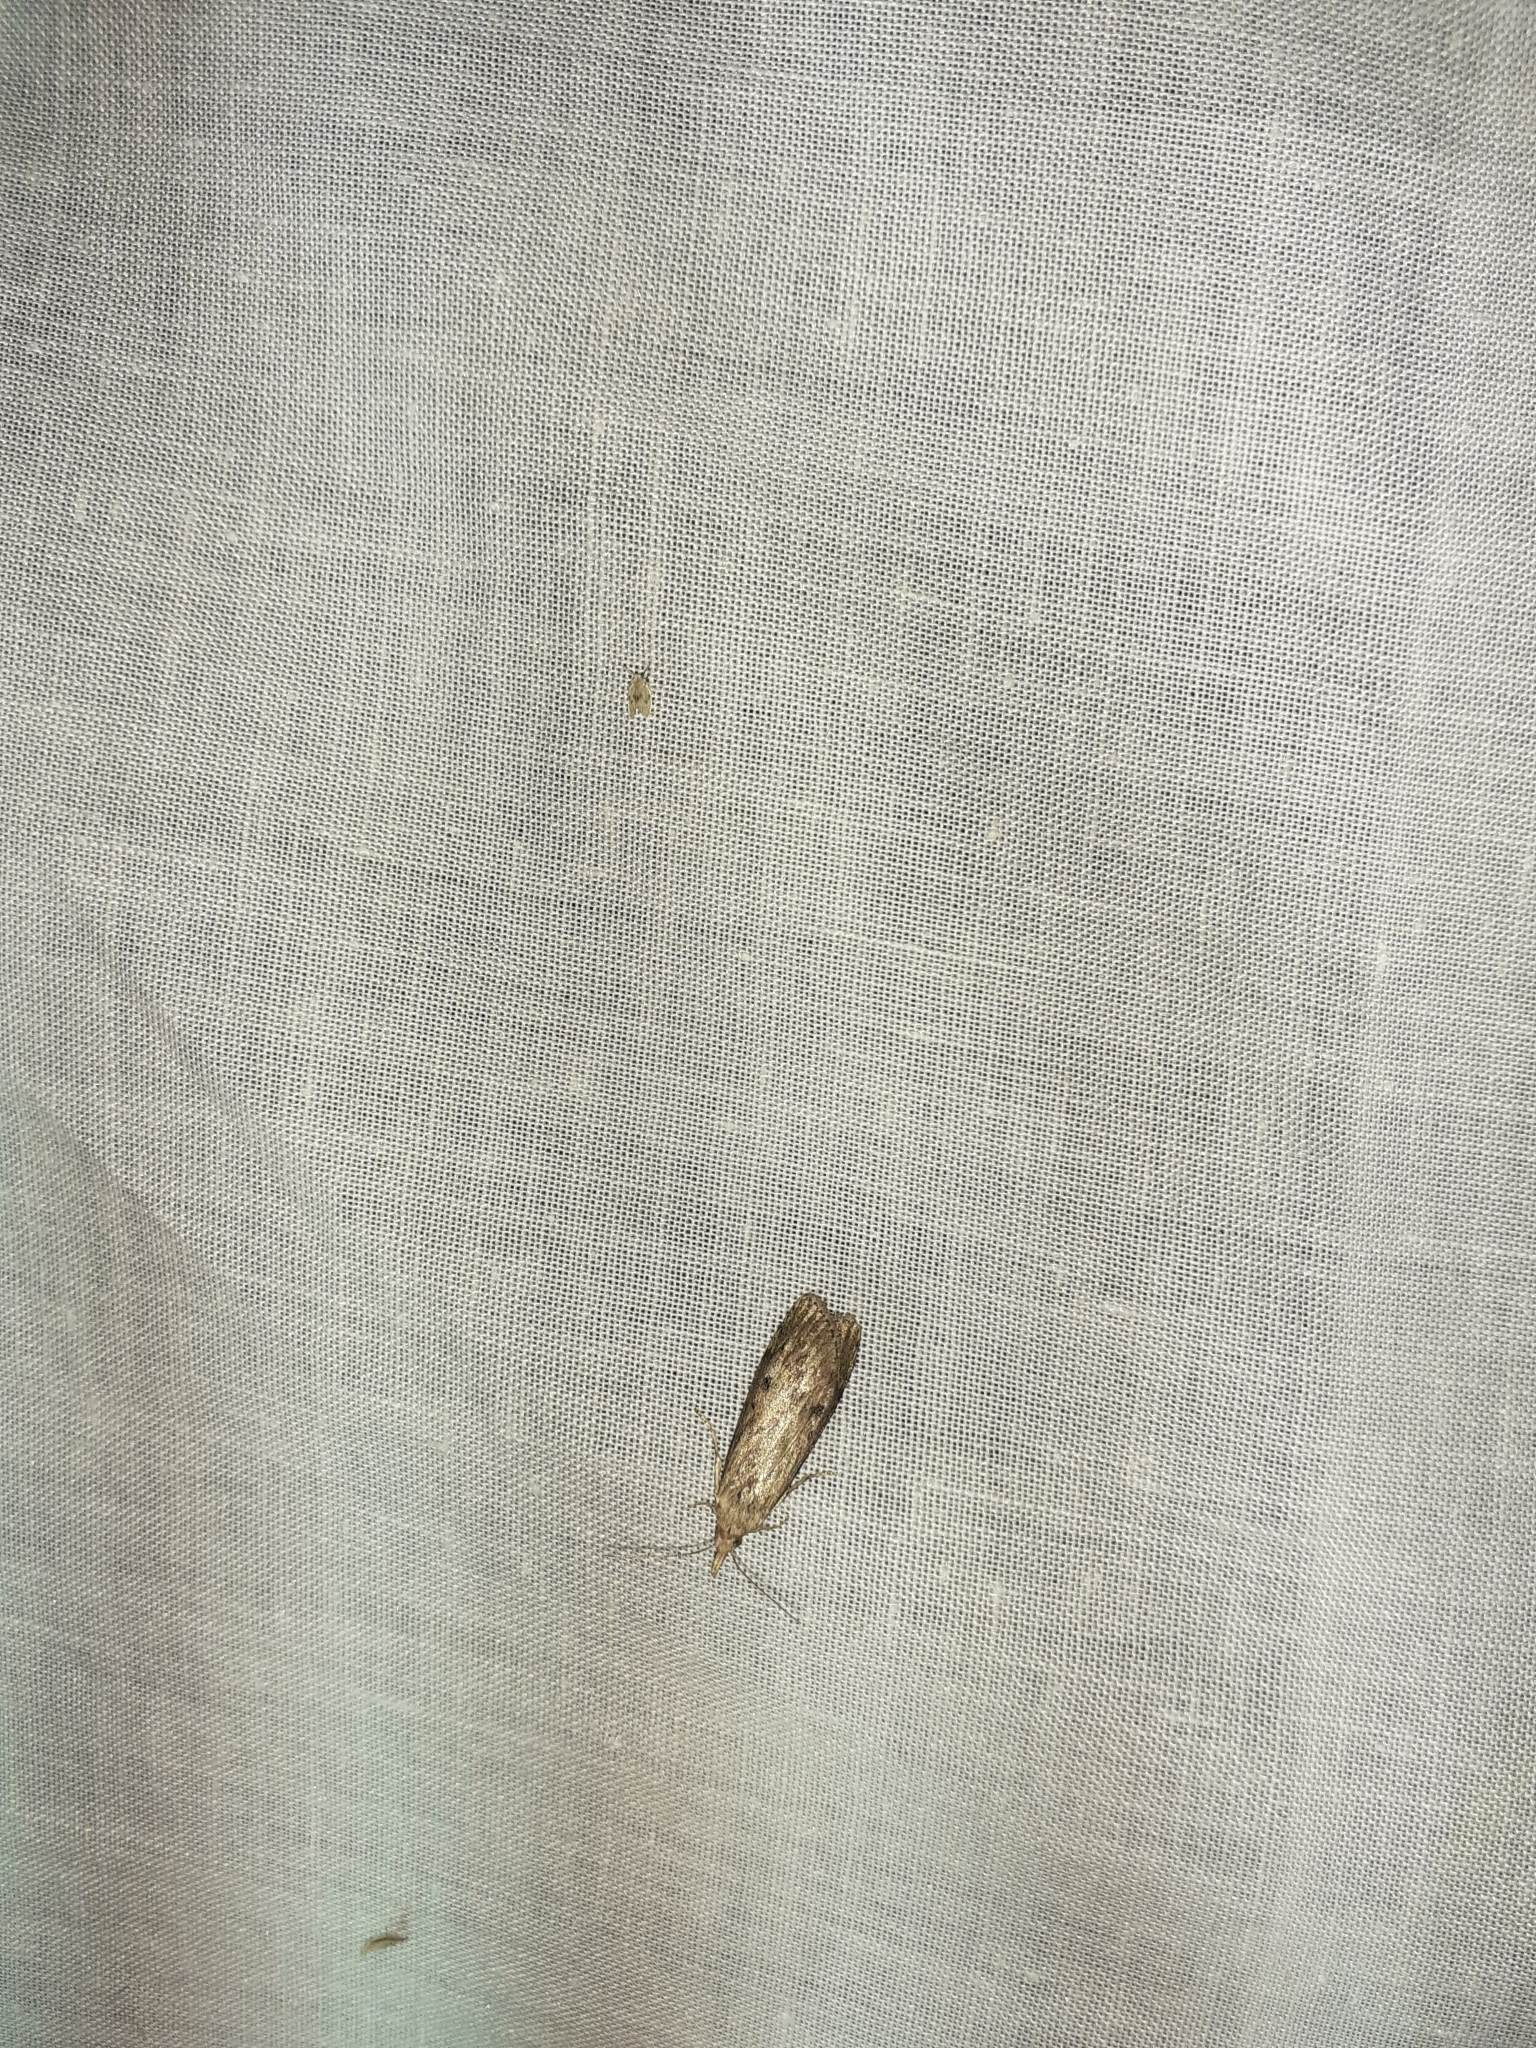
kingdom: Animalia
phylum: Arthropoda
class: Insecta
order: Lepidoptera
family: Pyralidae
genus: Aphomia
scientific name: Aphomia sociella
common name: Bee moth
